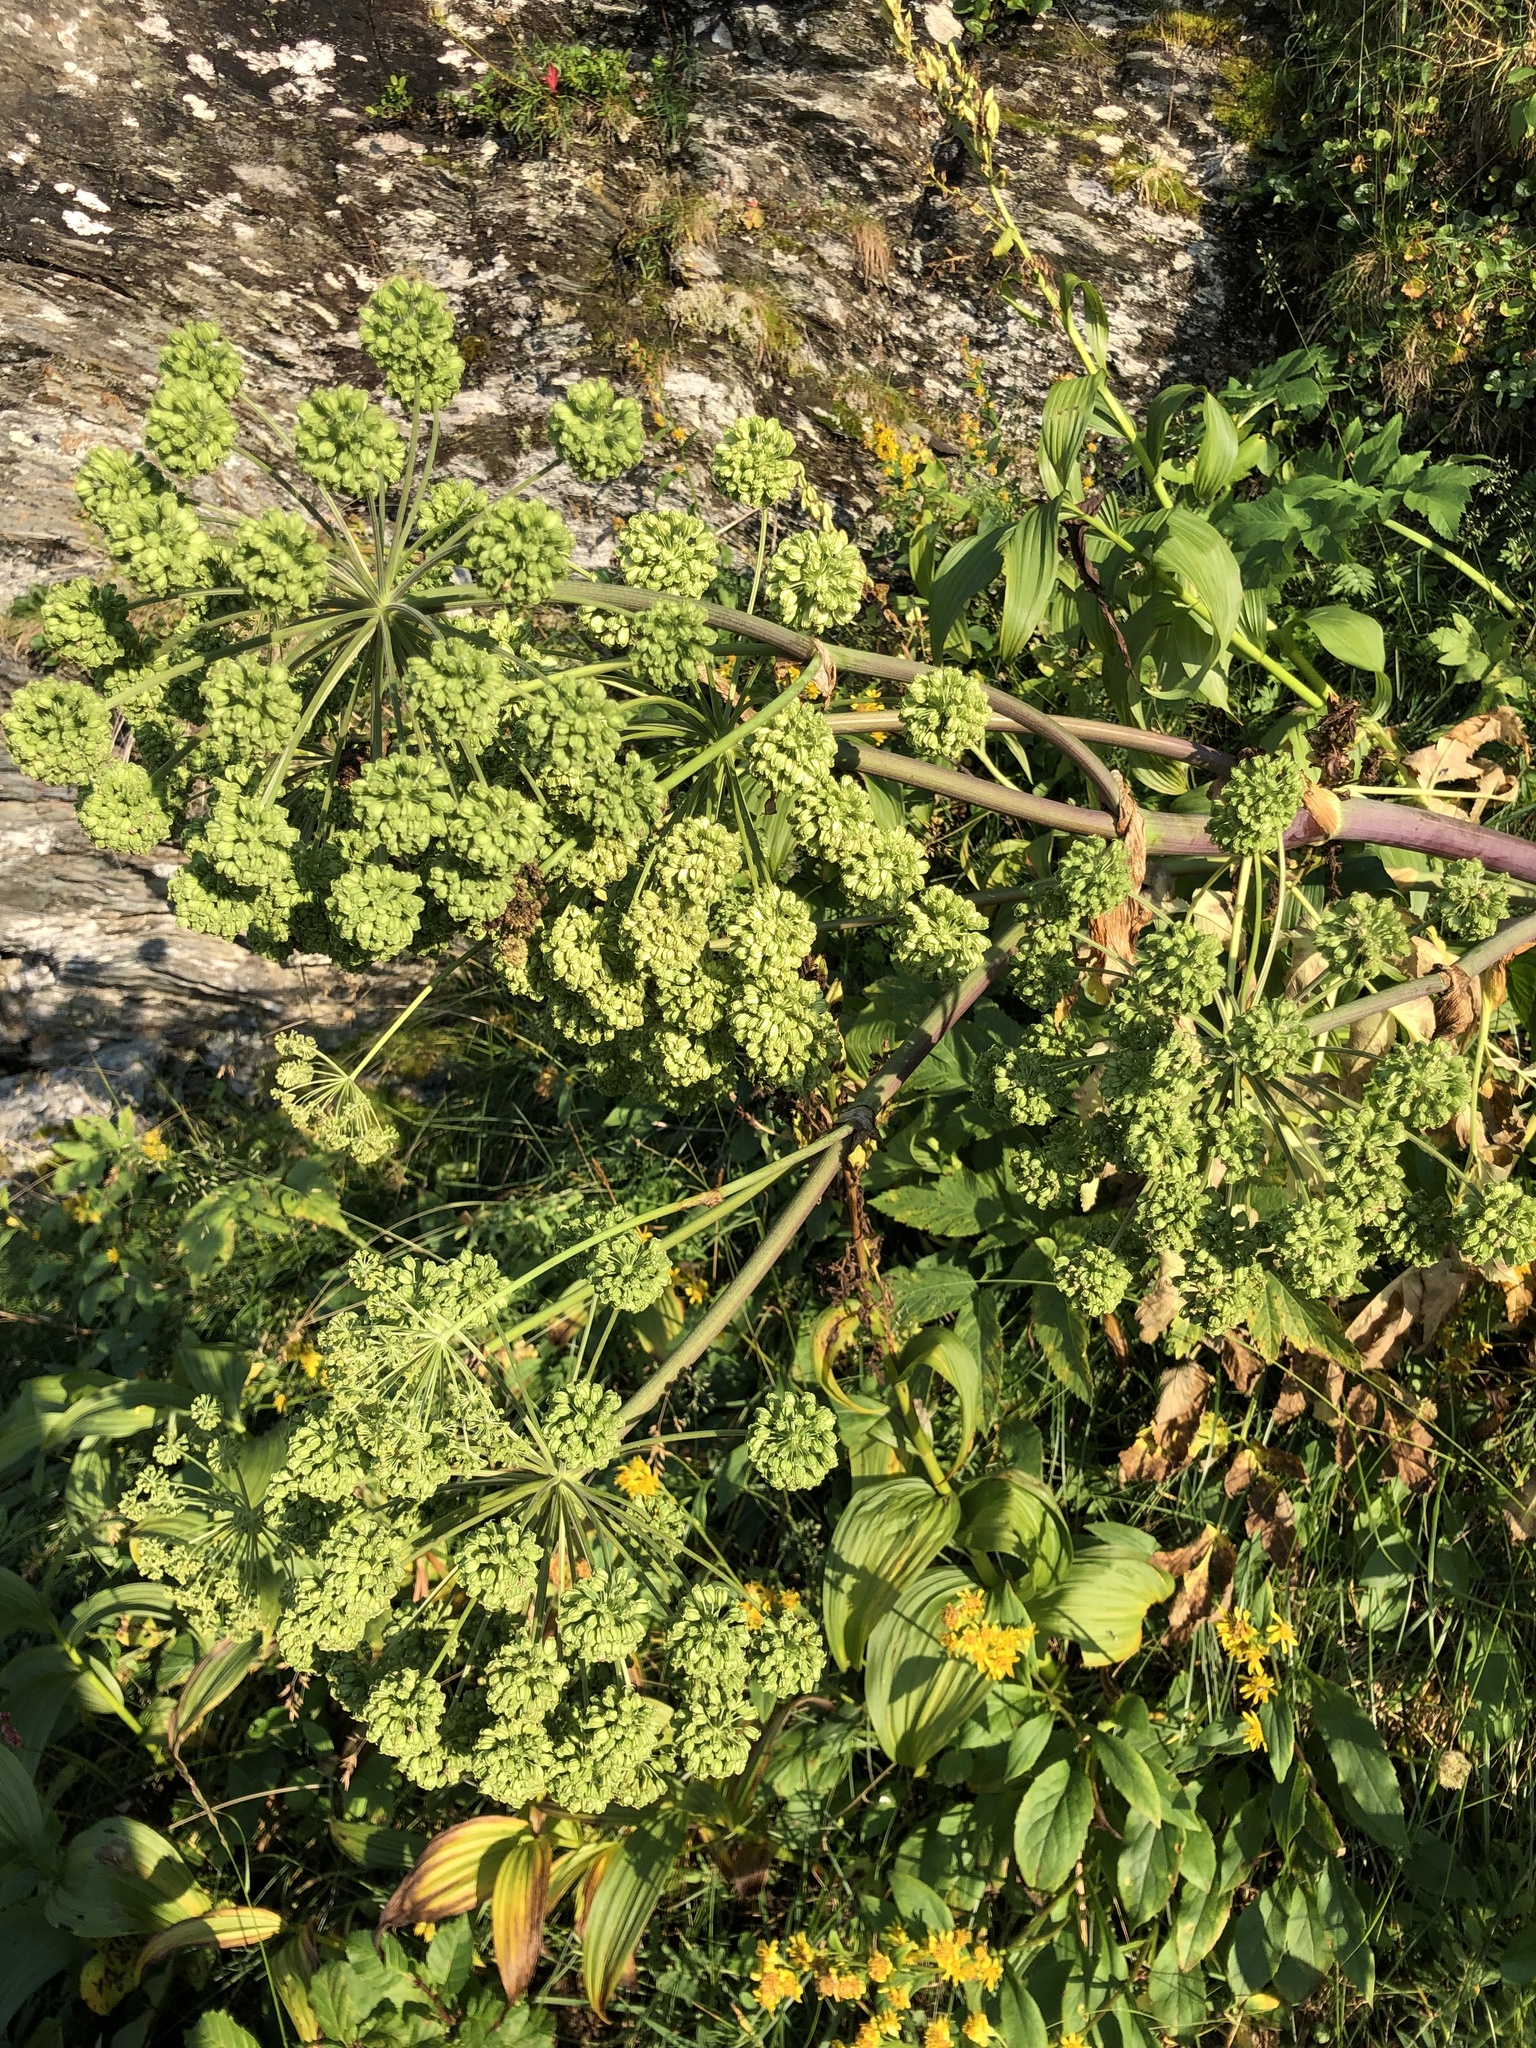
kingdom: Plantae
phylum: Tracheophyta
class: Magnoliopsida
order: Apiales
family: Apiaceae
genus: Angelica
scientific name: Angelica decurrens
